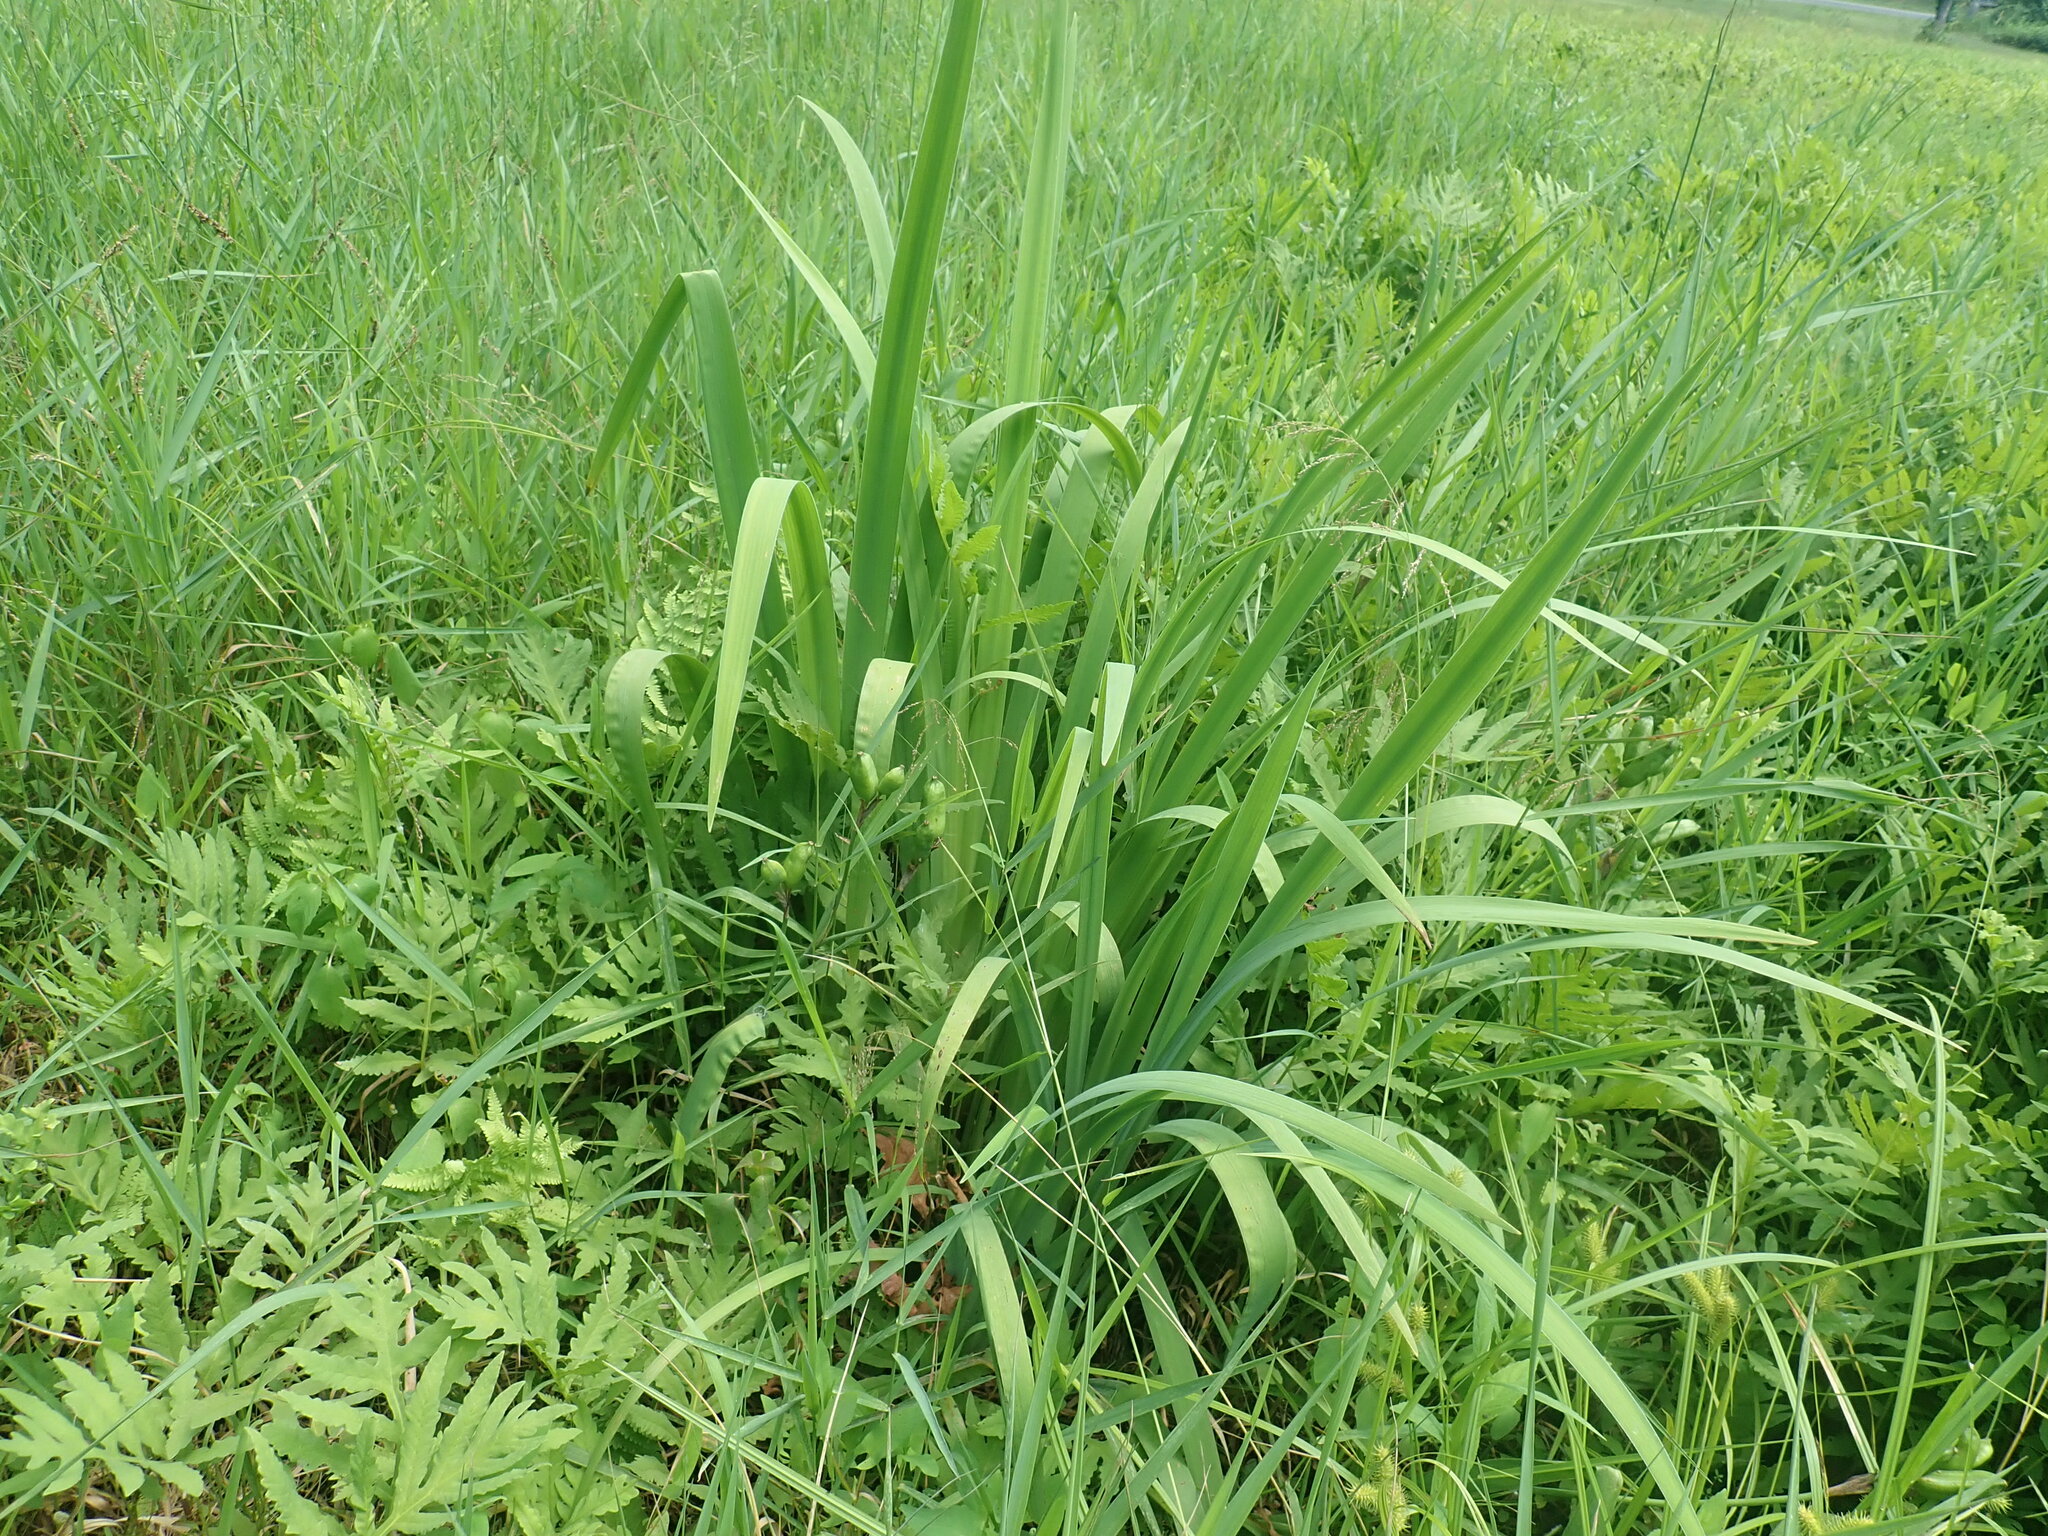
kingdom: Plantae
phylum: Tracheophyta
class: Liliopsida
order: Asparagales
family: Iridaceae
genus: Iris
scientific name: Iris
